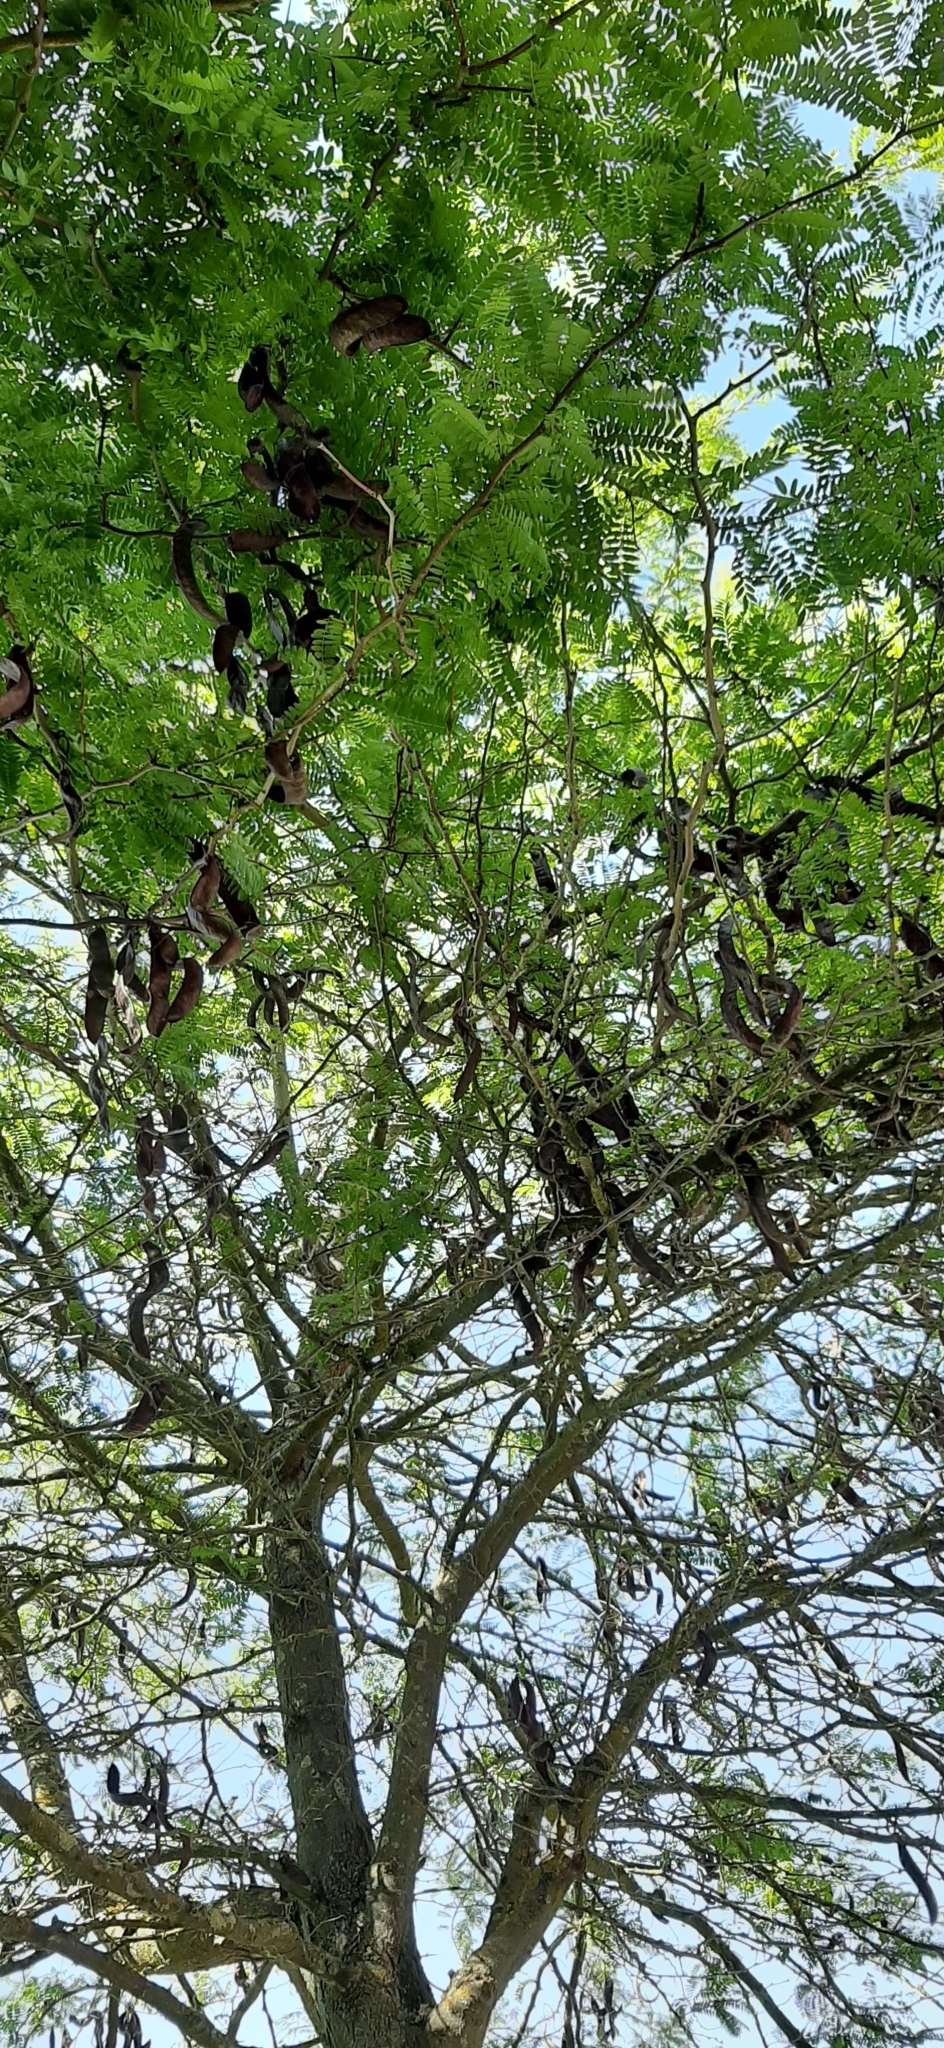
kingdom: Plantae
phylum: Tracheophyta
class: Magnoliopsida
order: Fabales
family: Fabaceae
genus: Gleditsia
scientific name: Gleditsia triacanthos
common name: Common honeylocust
